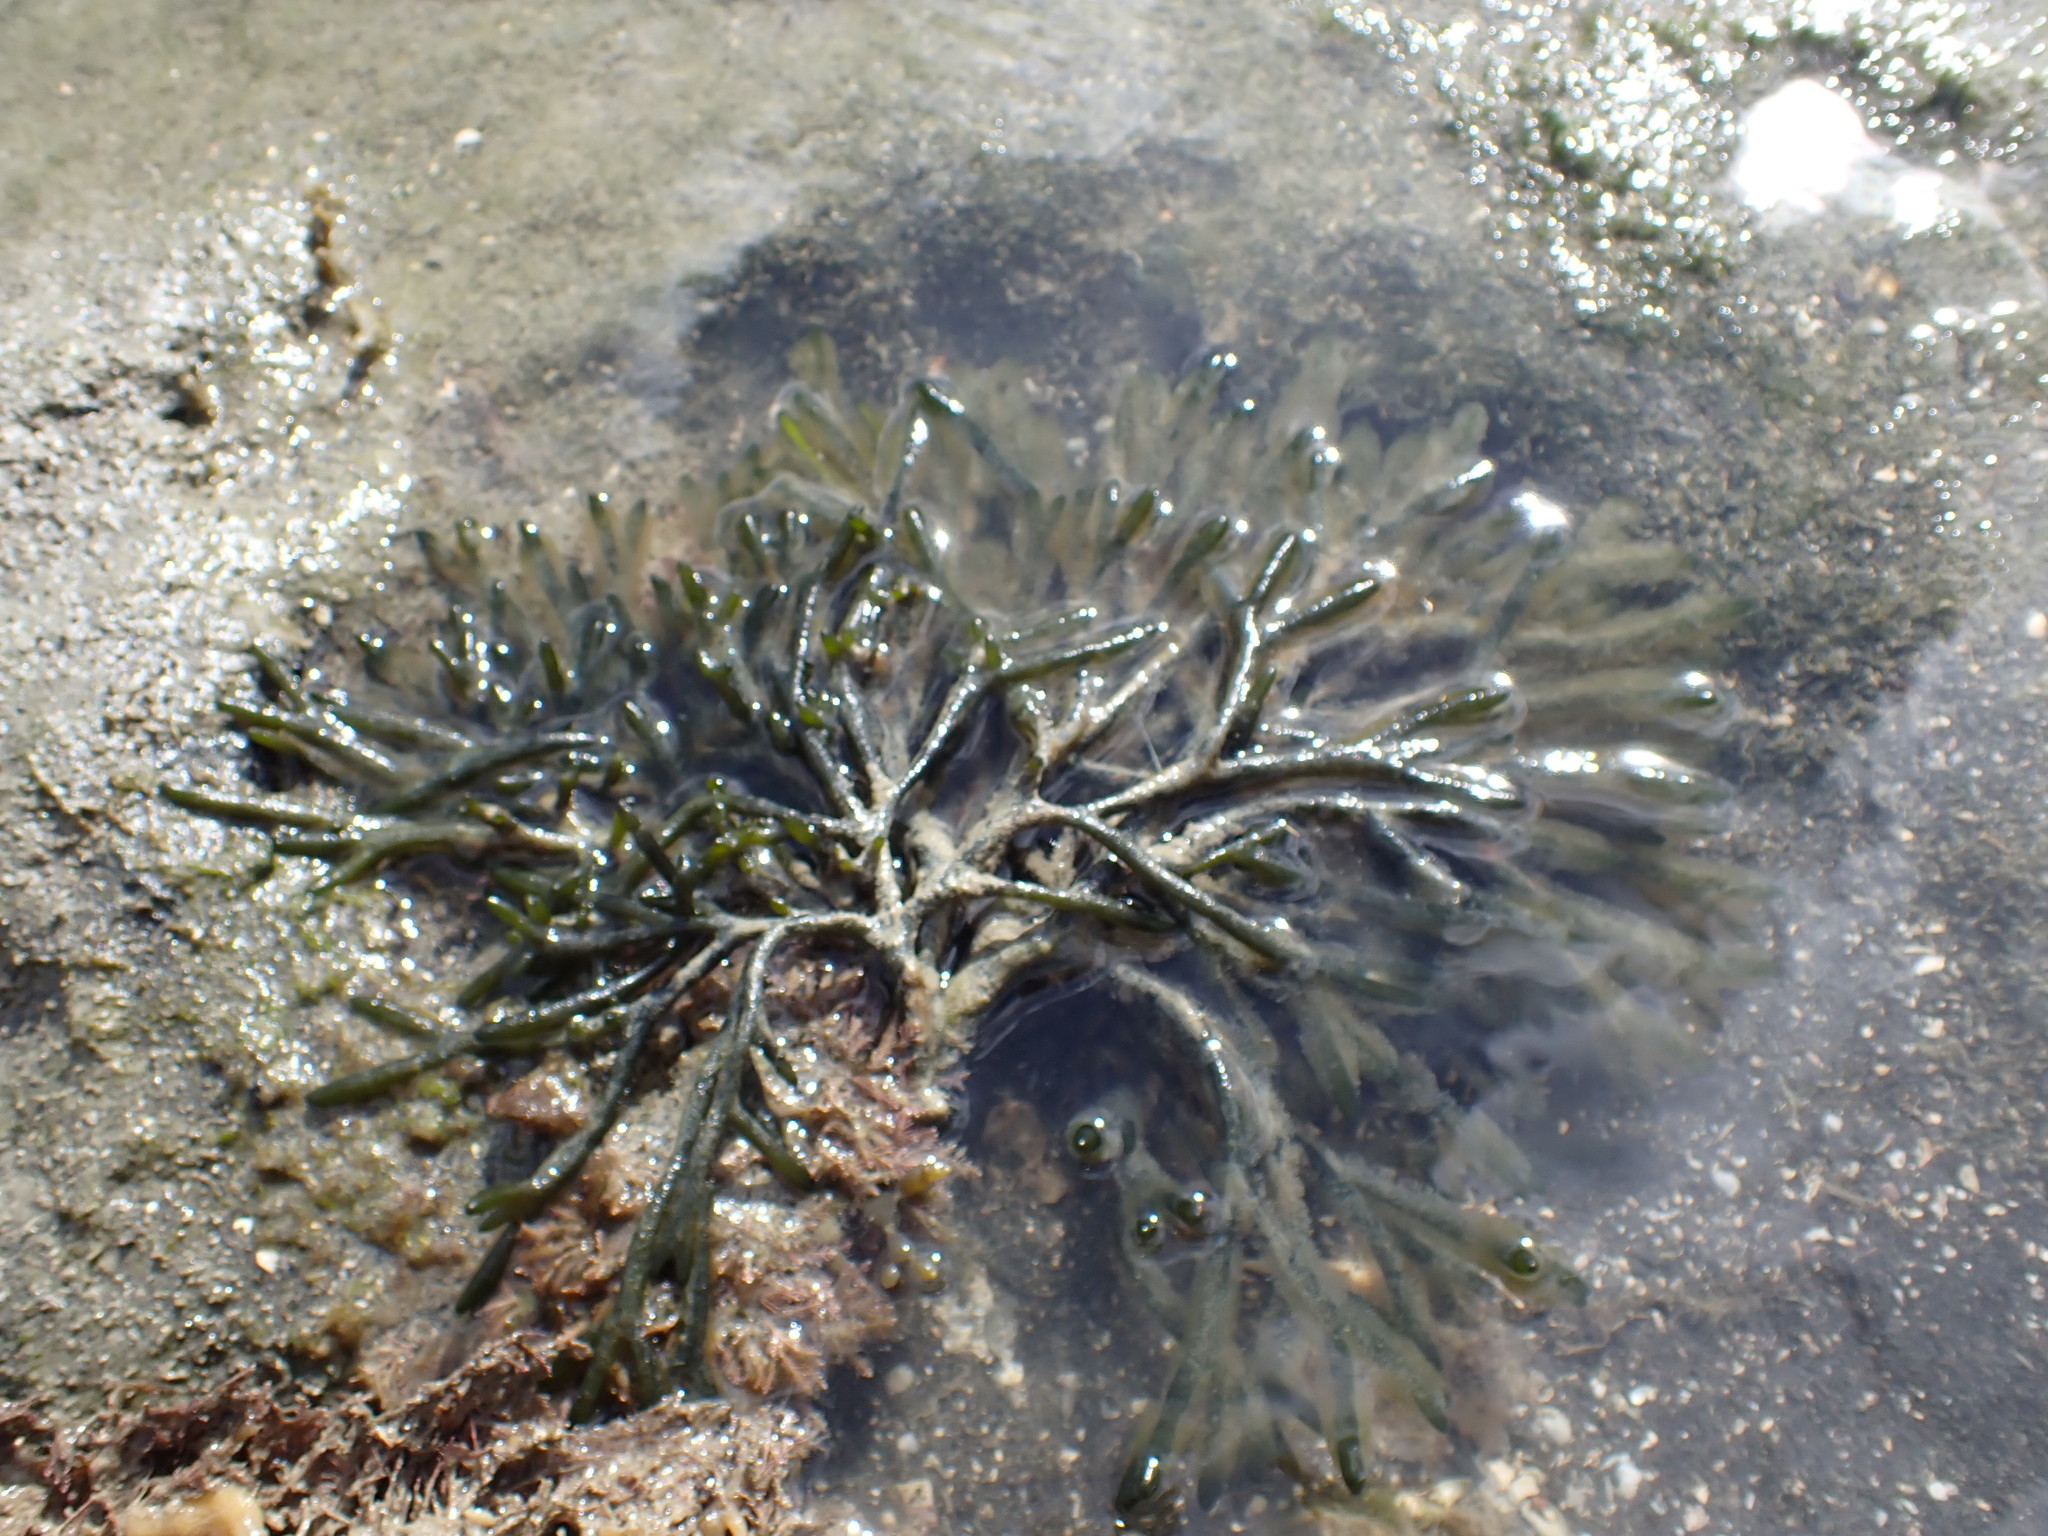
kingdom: Plantae
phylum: Chlorophyta
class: Ulvophyceae
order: Bryopsidales
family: Codiaceae
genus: Codium
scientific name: Codium fragile
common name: Dead man's fingers
